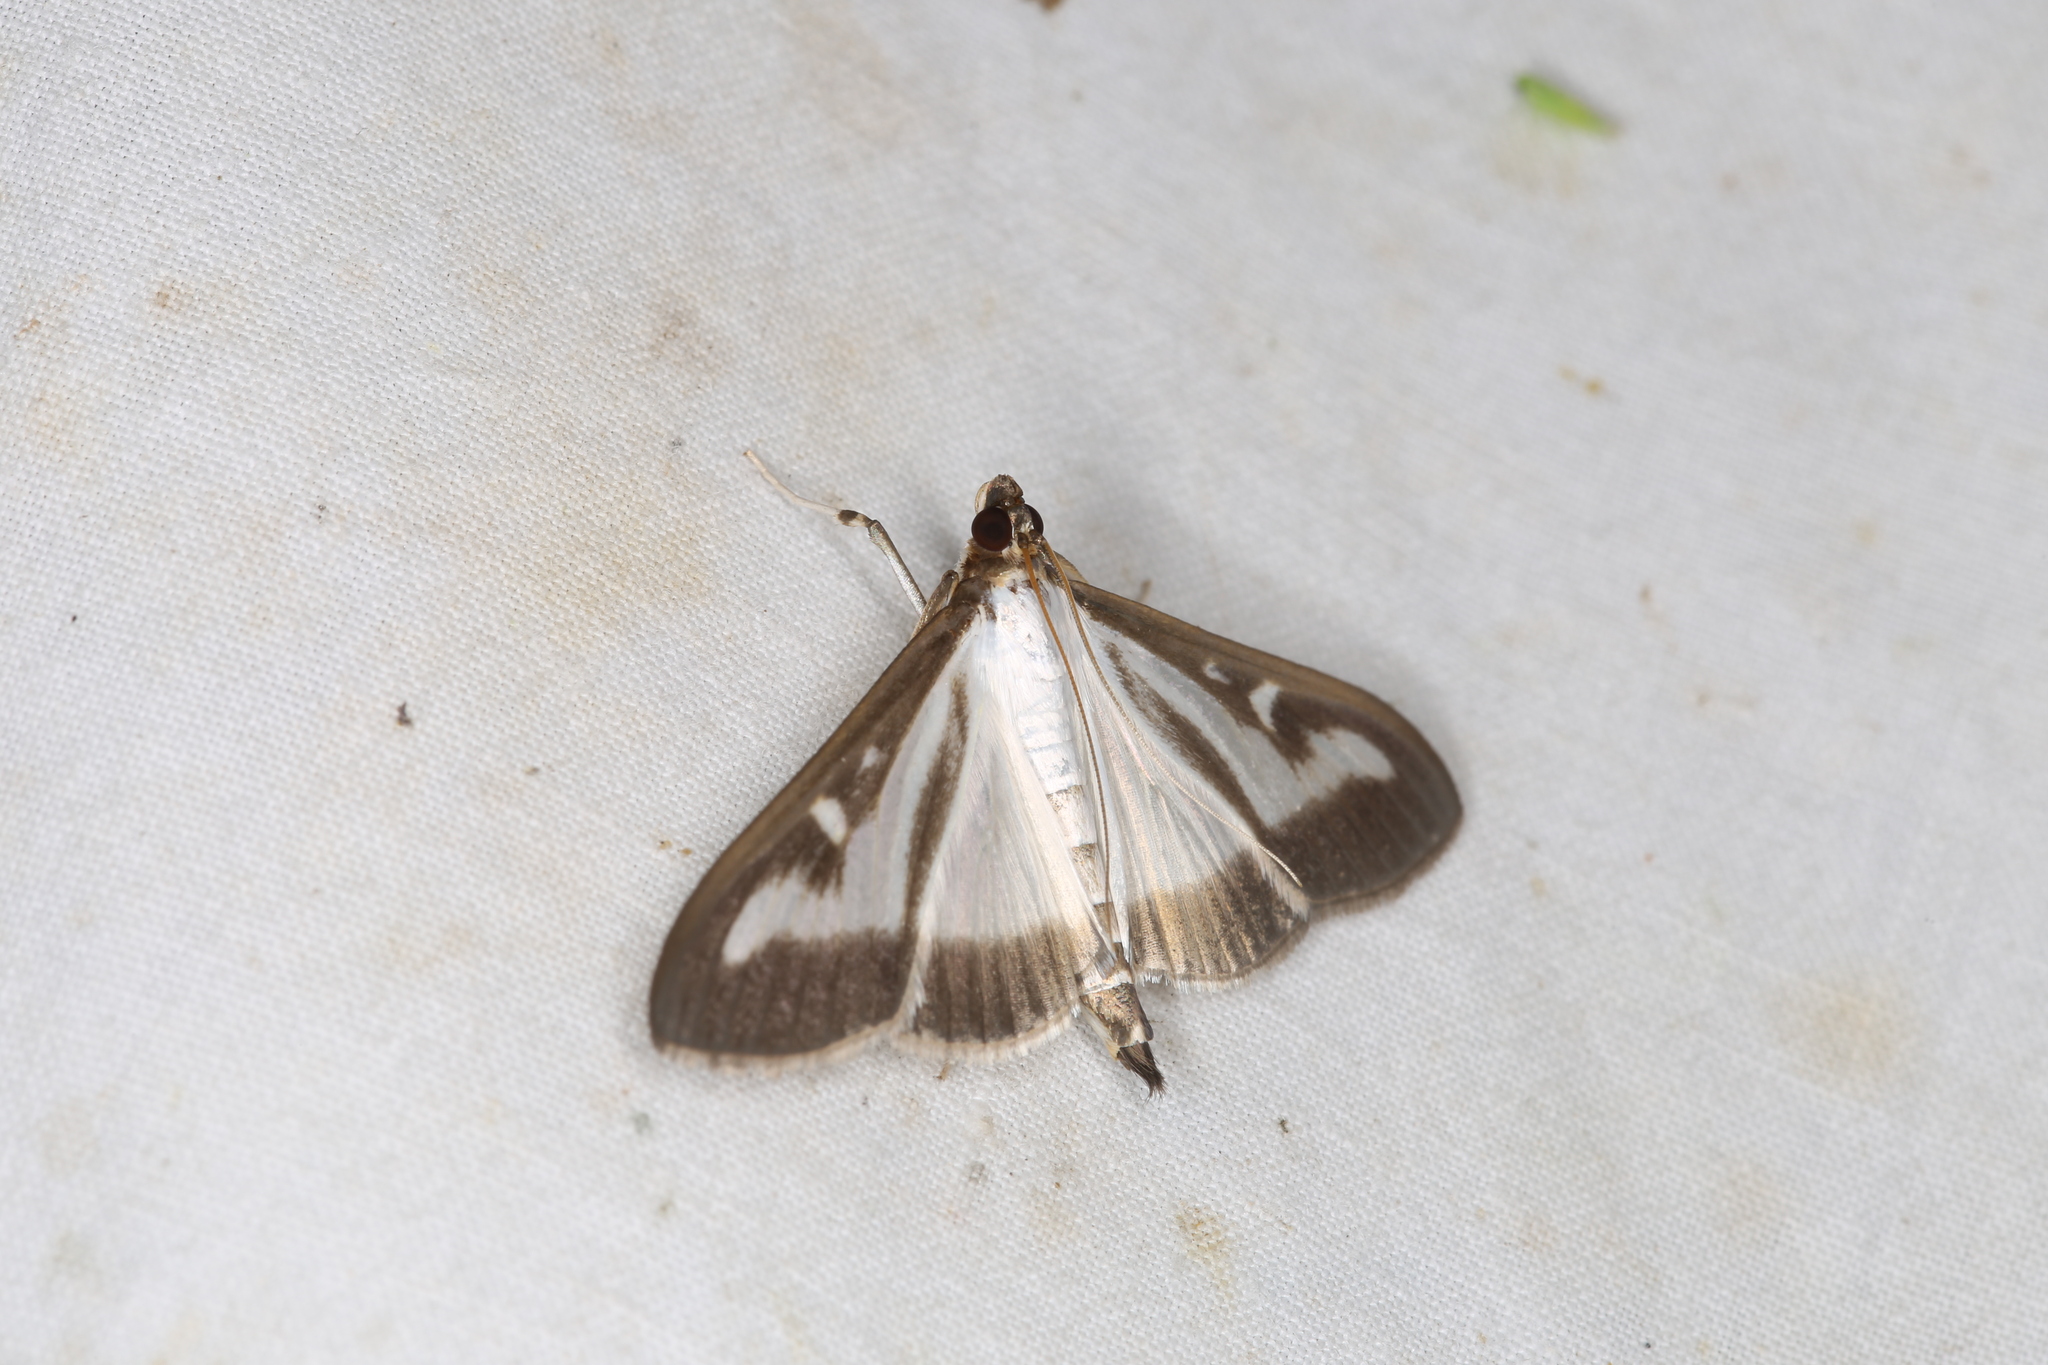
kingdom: Animalia
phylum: Arthropoda
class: Insecta
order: Lepidoptera
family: Crambidae
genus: Cydalima
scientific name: Cydalima perspectalis
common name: Box tree moth
